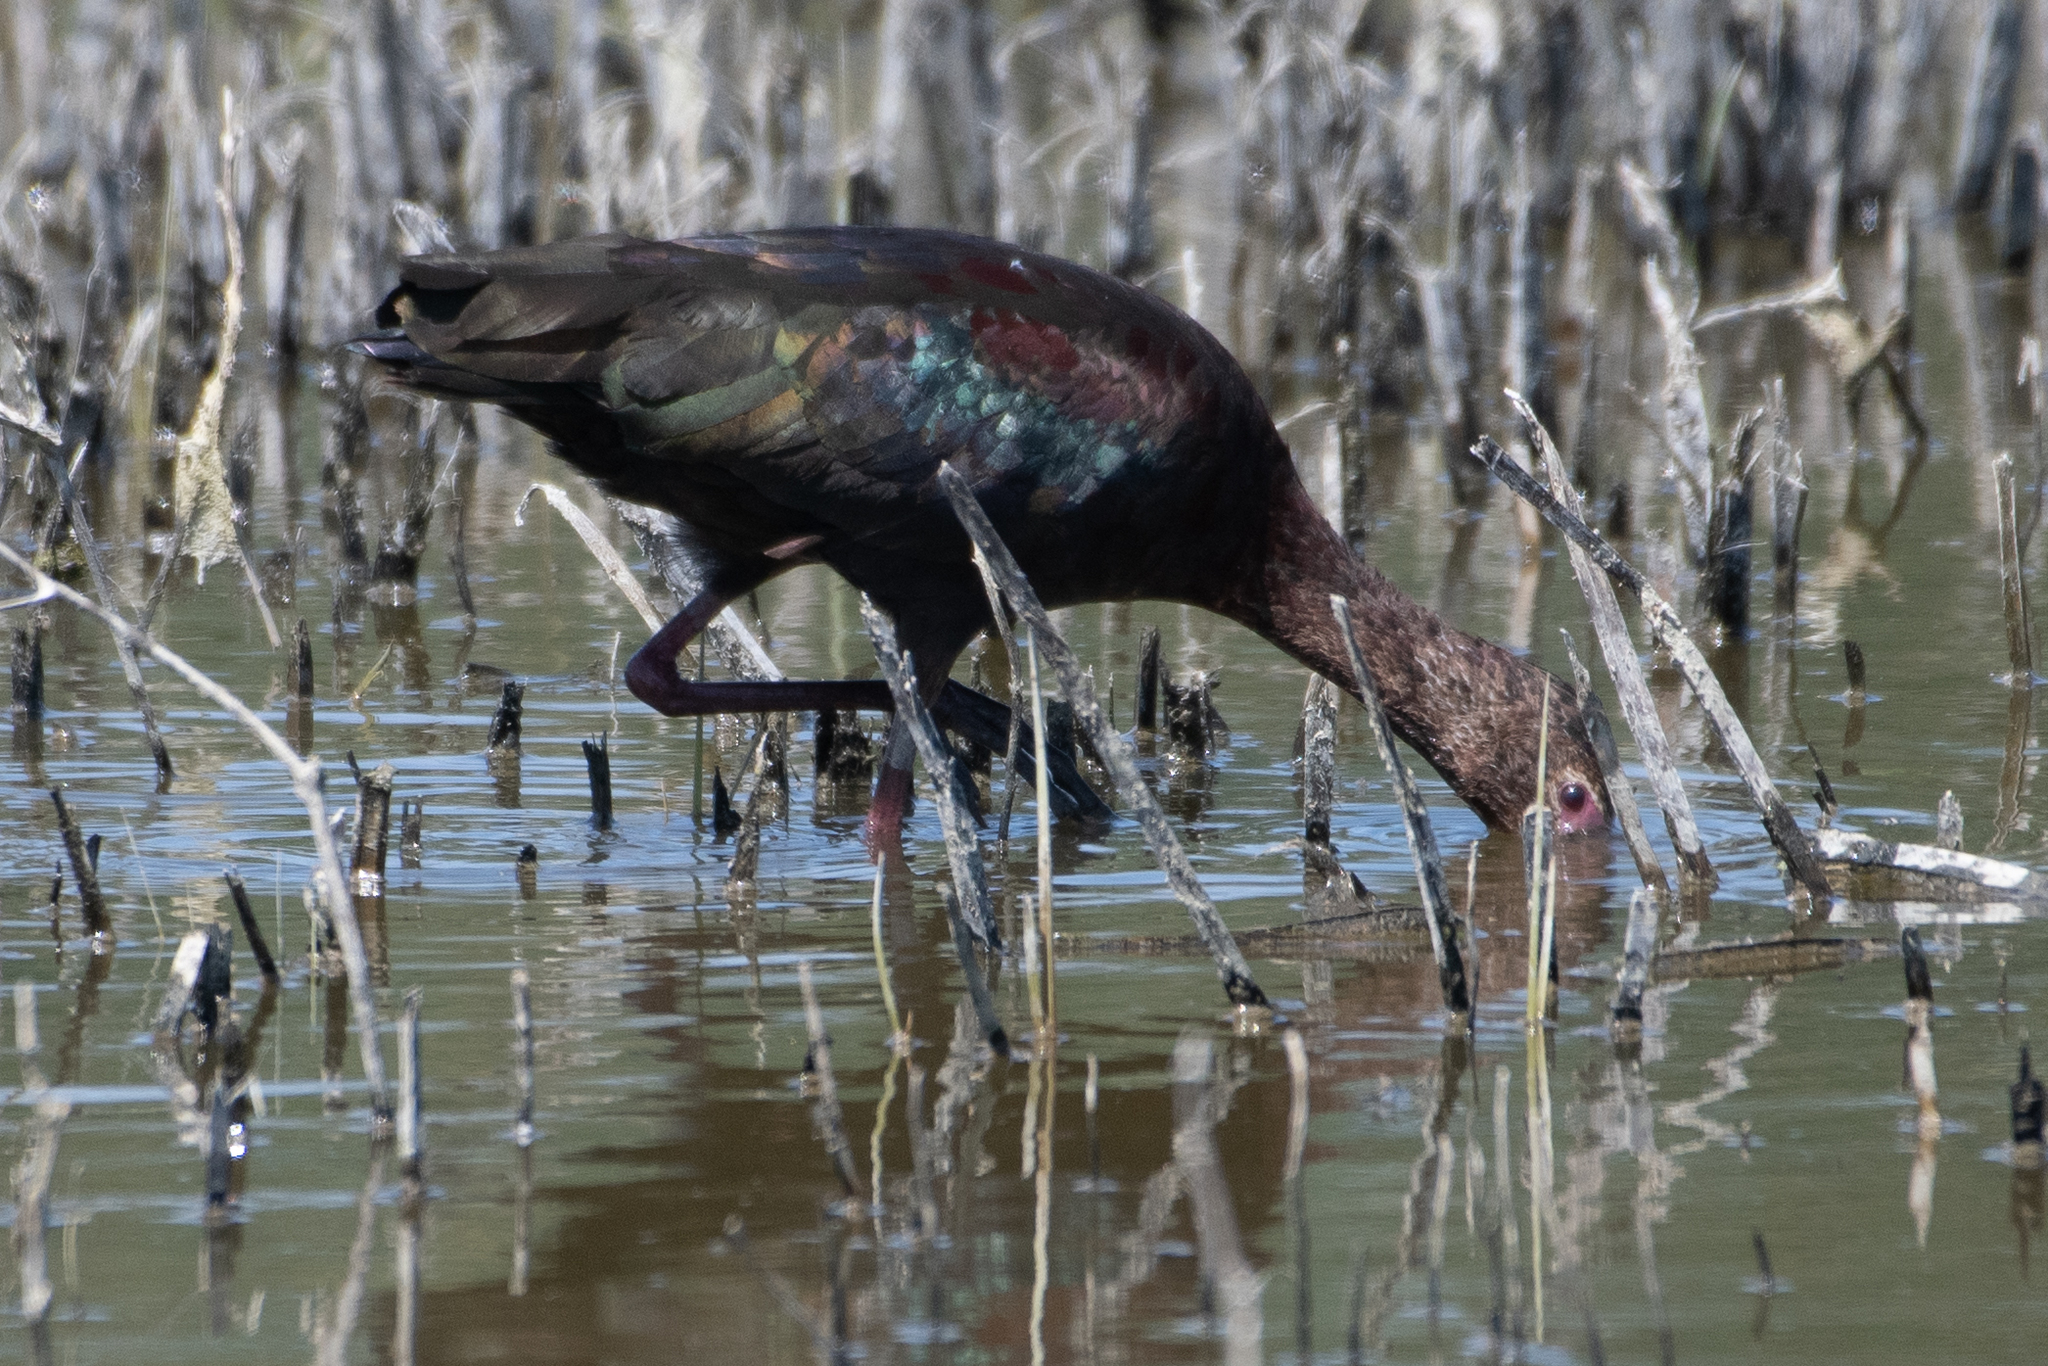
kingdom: Animalia
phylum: Chordata
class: Aves
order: Pelecaniformes
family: Threskiornithidae
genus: Plegadis
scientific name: Plegadis chihi
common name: White-faced ibis
